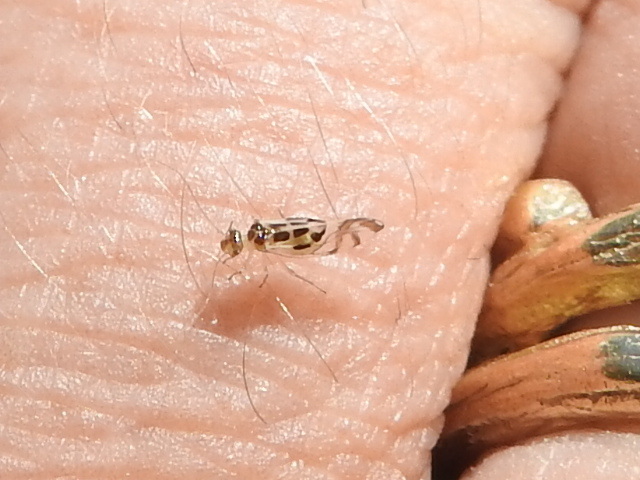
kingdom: Animalia
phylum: Arthropoda
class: Insecta
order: Psocodea
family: Stenopsocidae
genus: Graphopsocus
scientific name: Graphopsocus cruciatus
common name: Lizard bark louse
